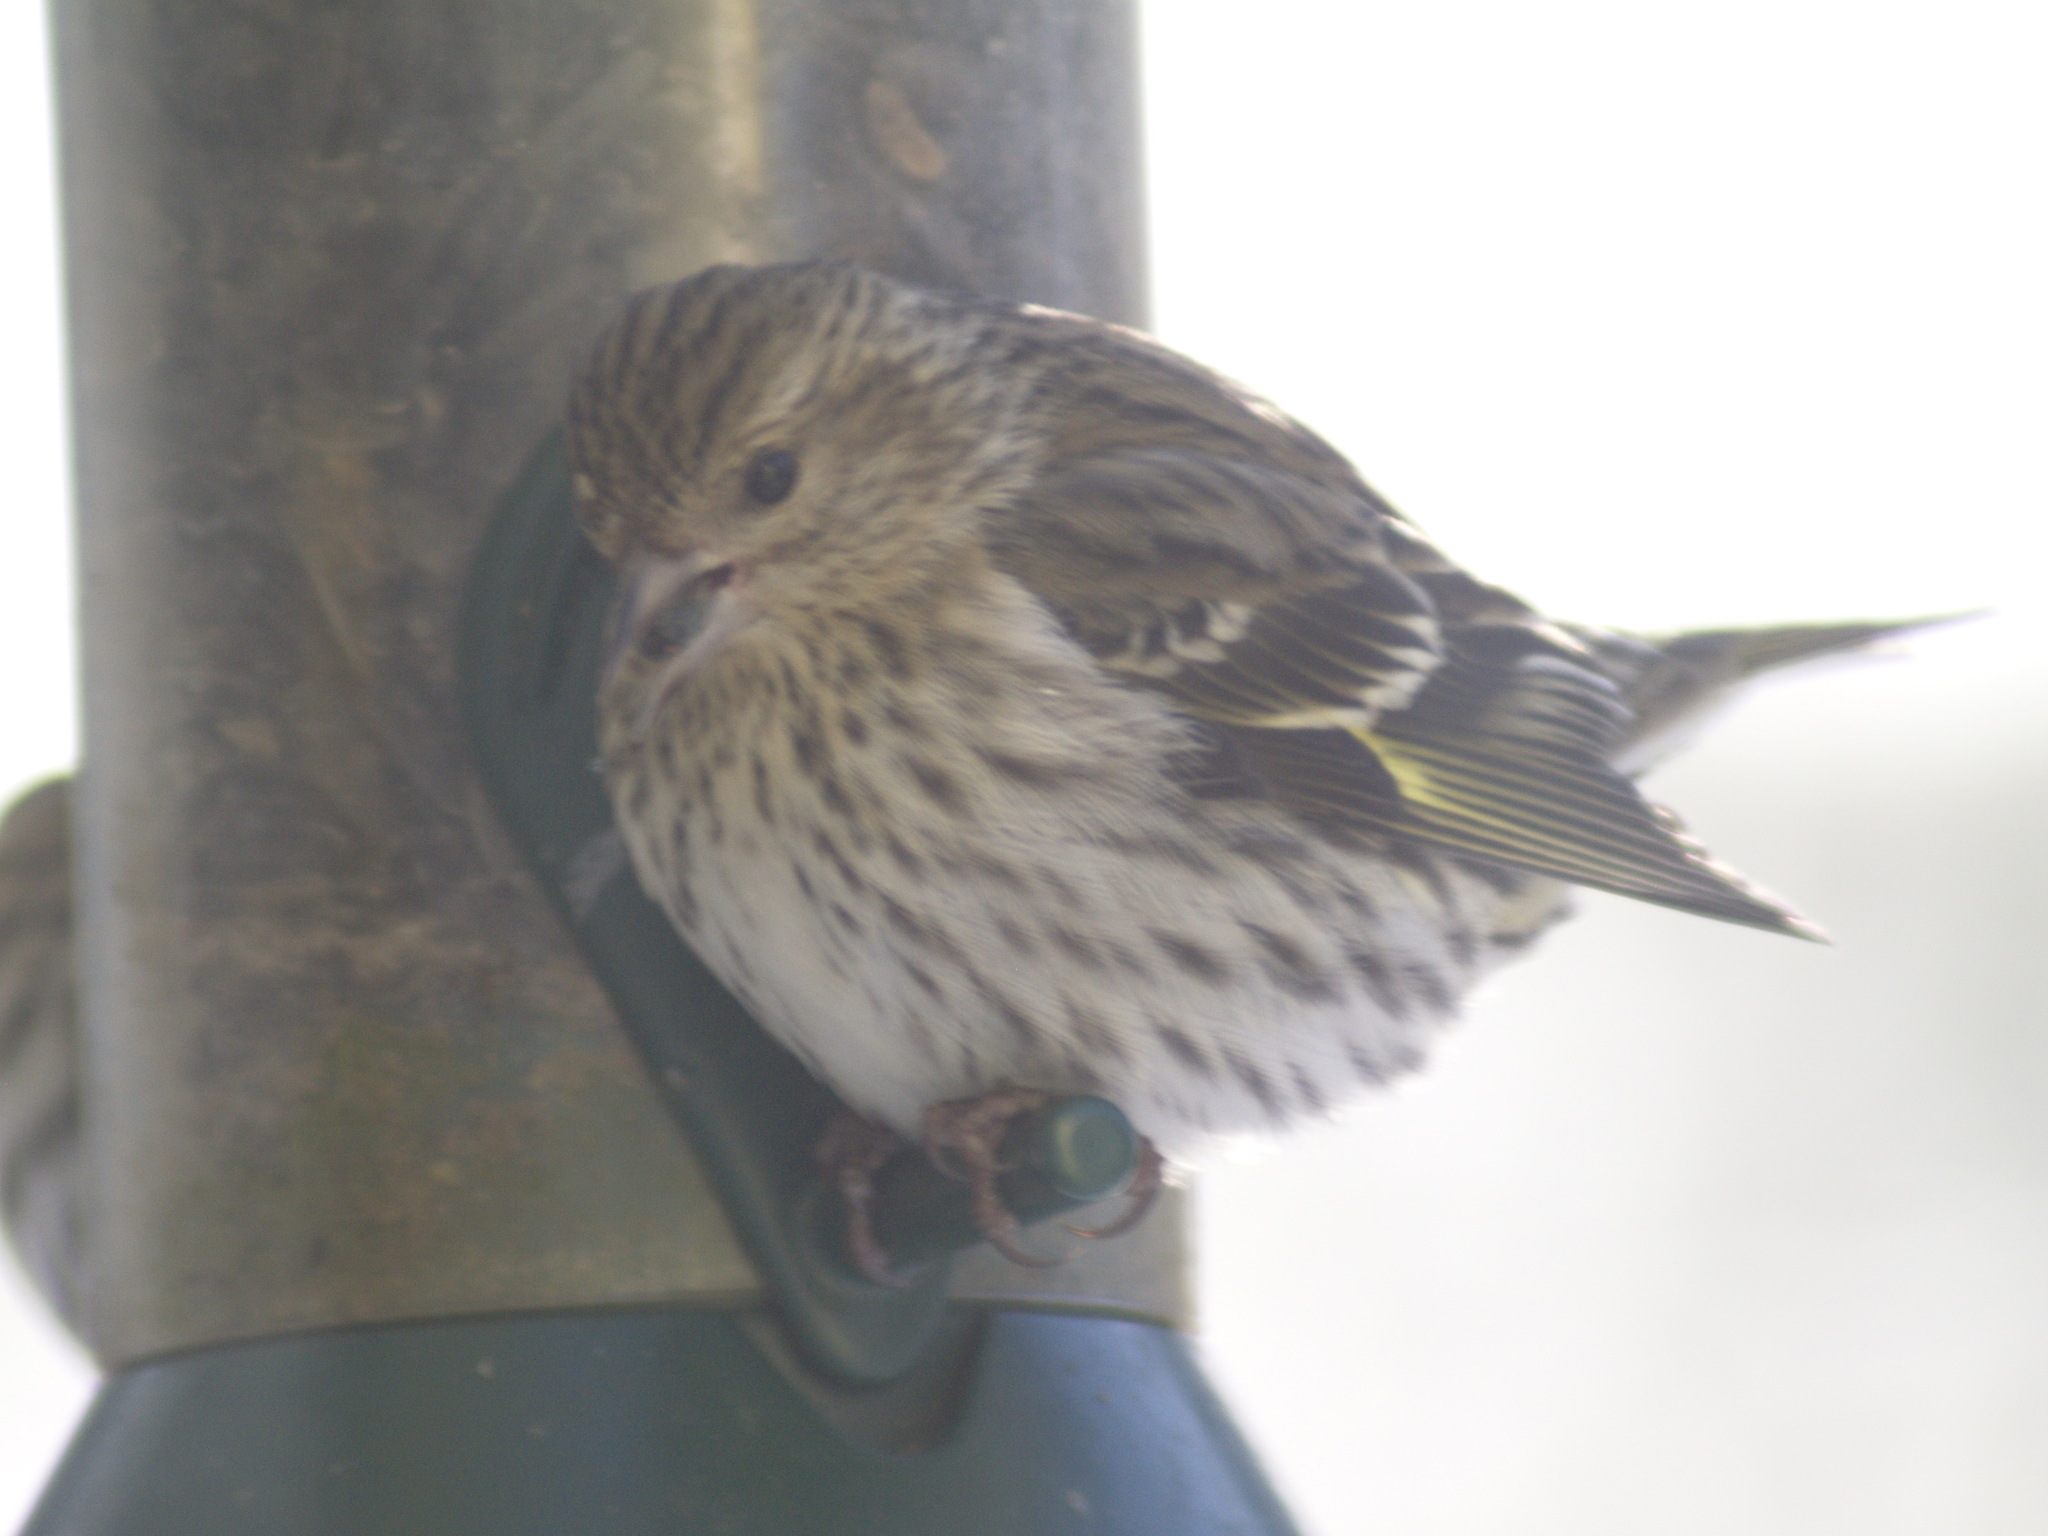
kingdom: Animalia
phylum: Chordata
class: Aves
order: Passeriformes
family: Fringillidae
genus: Spinus
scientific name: Spinus pinus
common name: Pine siskin
